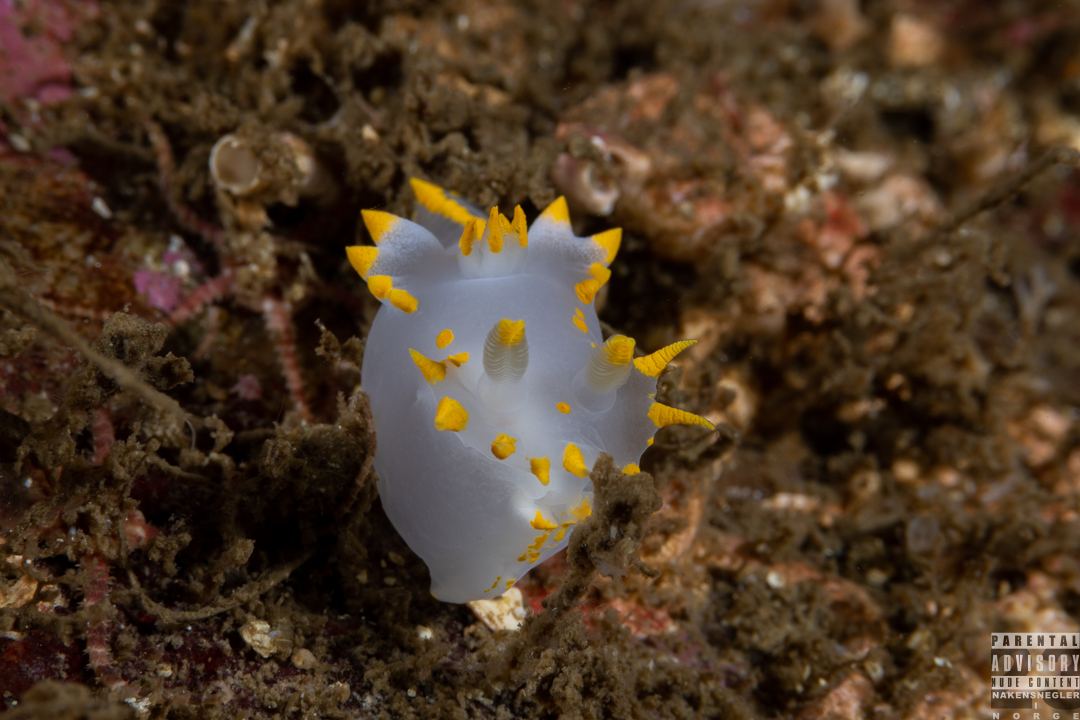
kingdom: Animalia
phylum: Mollusca
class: Gastropoda
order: Nudibranchia
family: Polyceridae
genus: Polycera
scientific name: Polycera faeroensis
